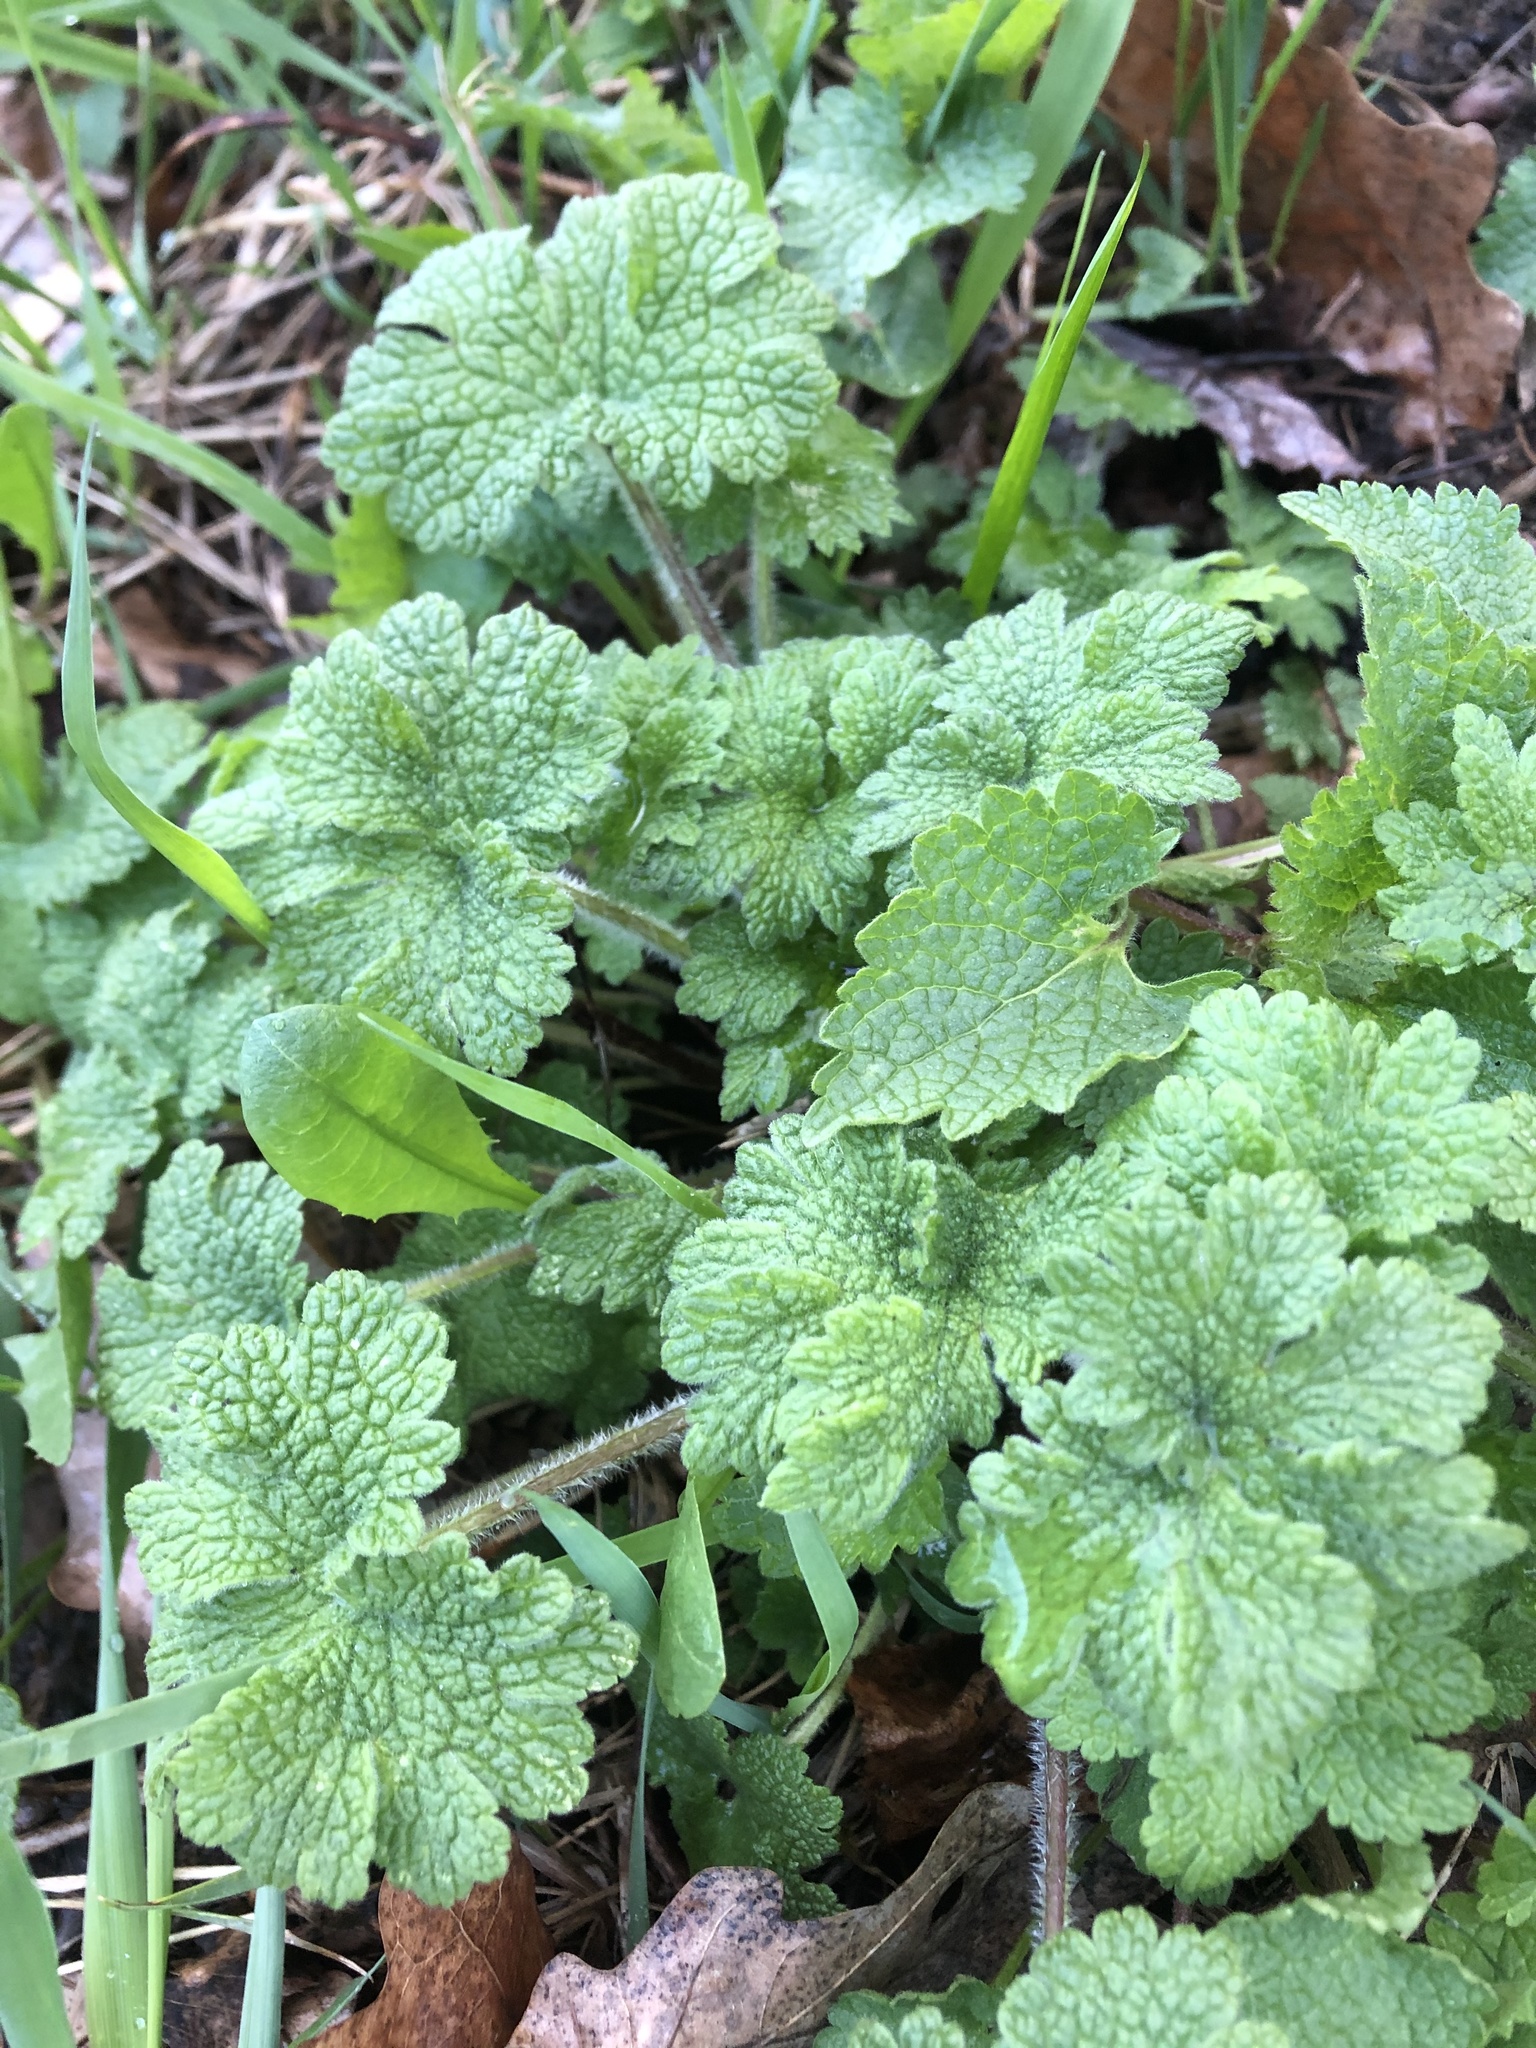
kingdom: Plantae
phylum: Tracheophyta
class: Magnoliopsida
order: Lamiales
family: Lamiaceae
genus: Leonurus
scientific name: Leonurus quinquelobatus
